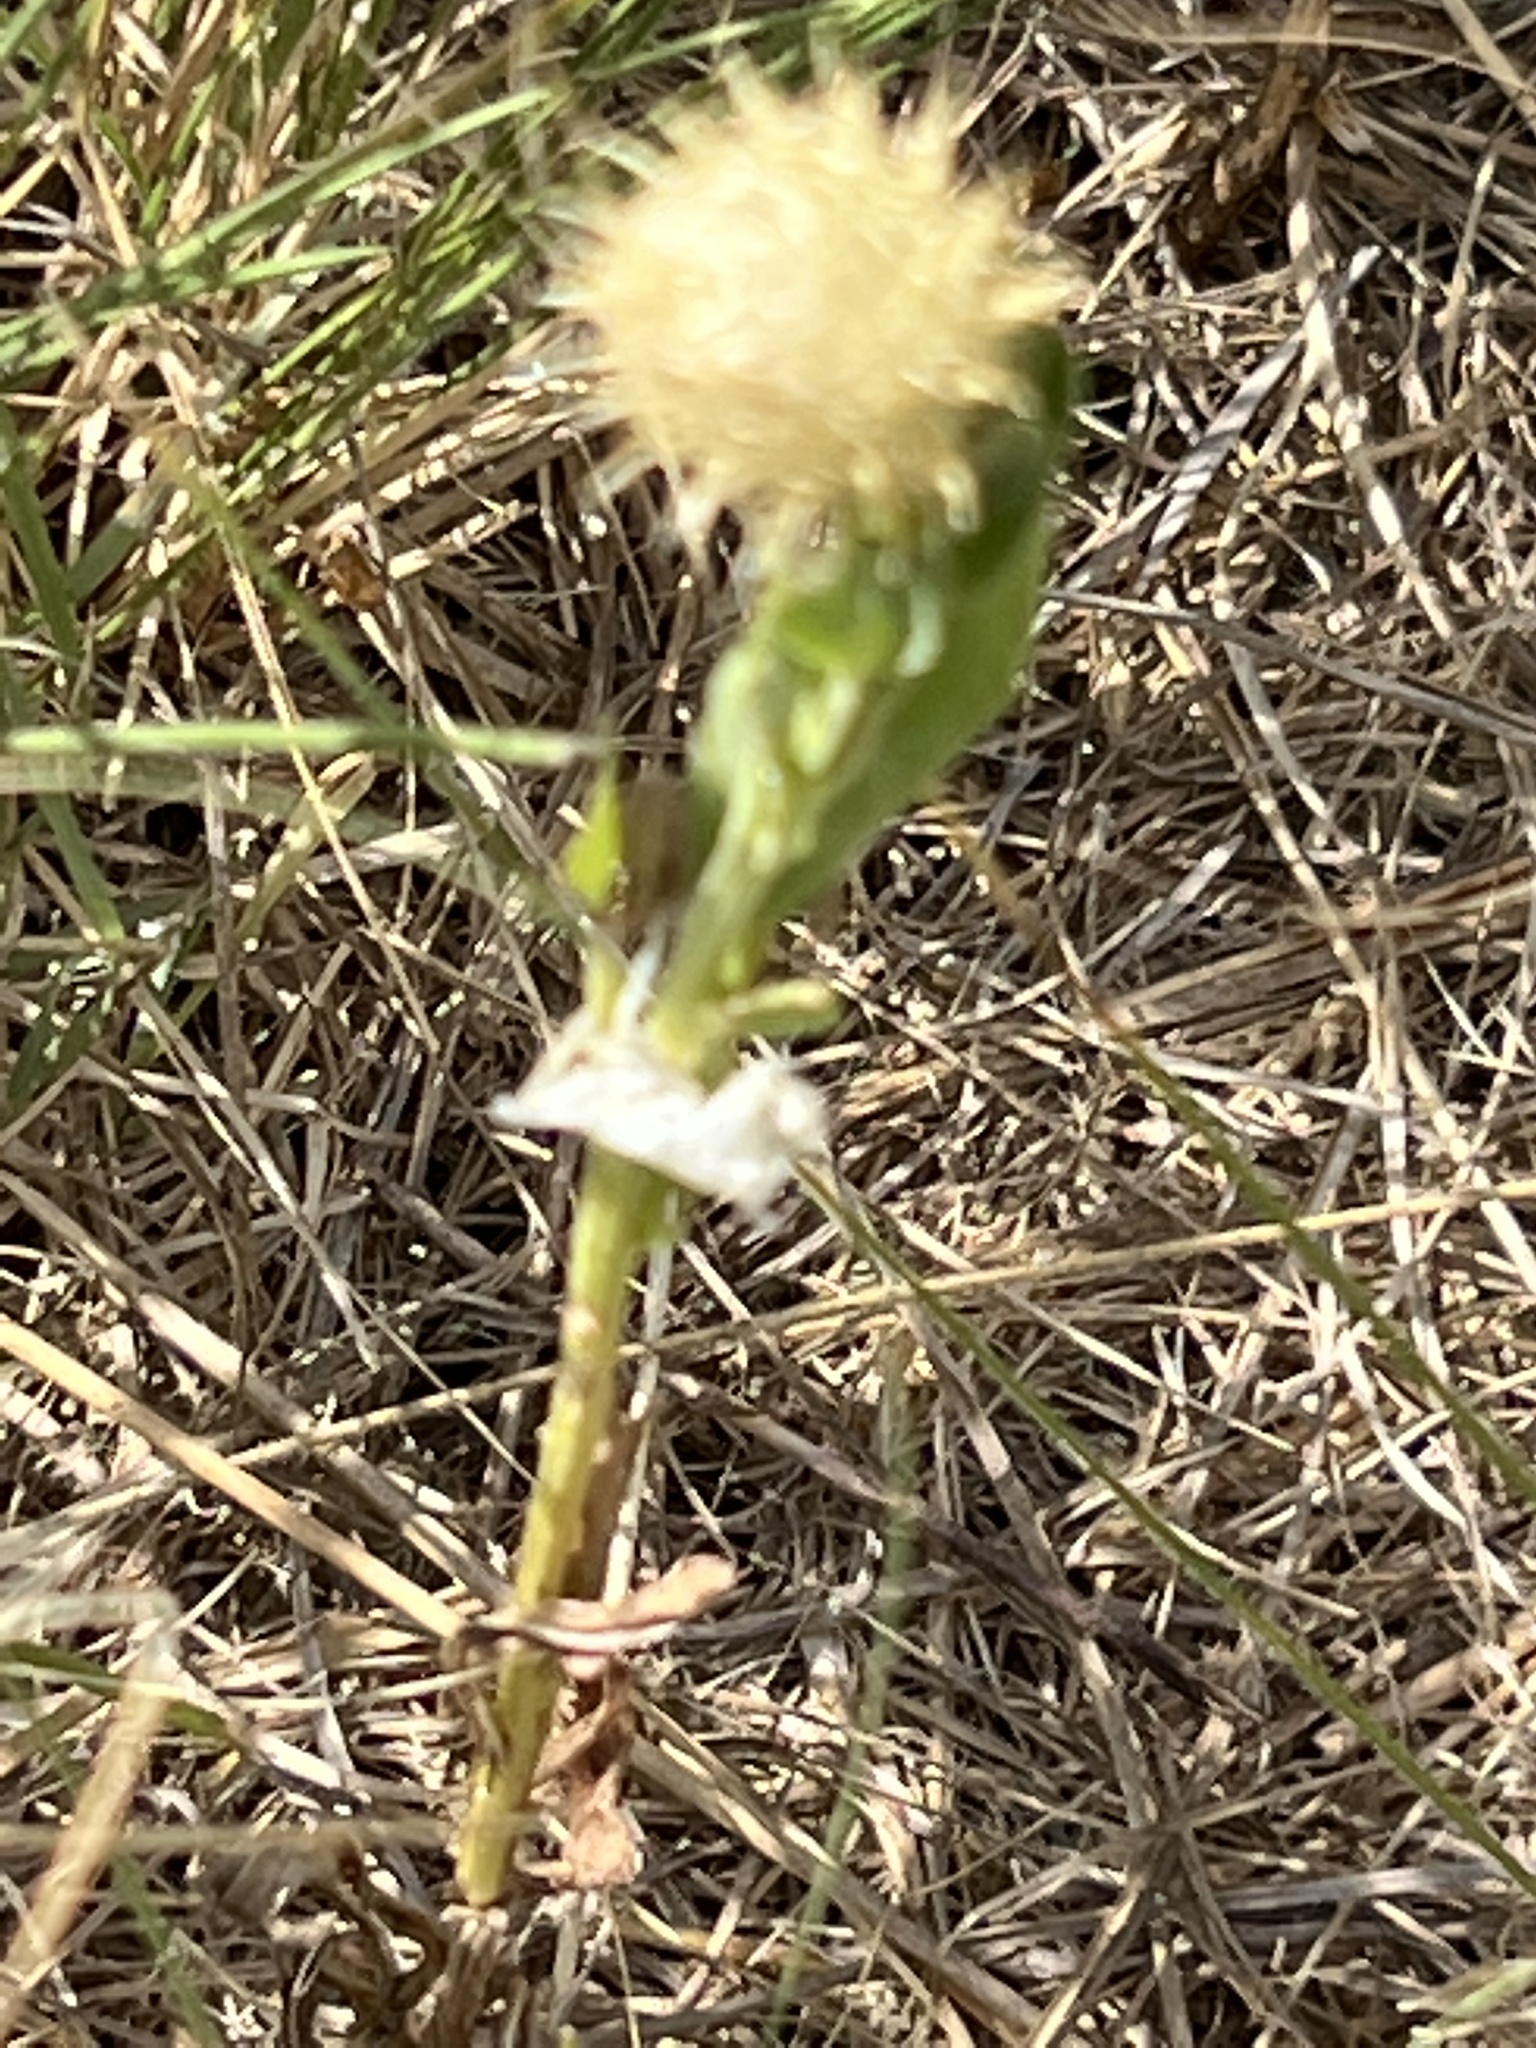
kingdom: Plantae
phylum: Tracheophyta
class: Magnoliopsida
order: Asterales
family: Asteraceae
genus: Plectocephalus
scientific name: Plectocephalus americanus
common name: American basket-flower
